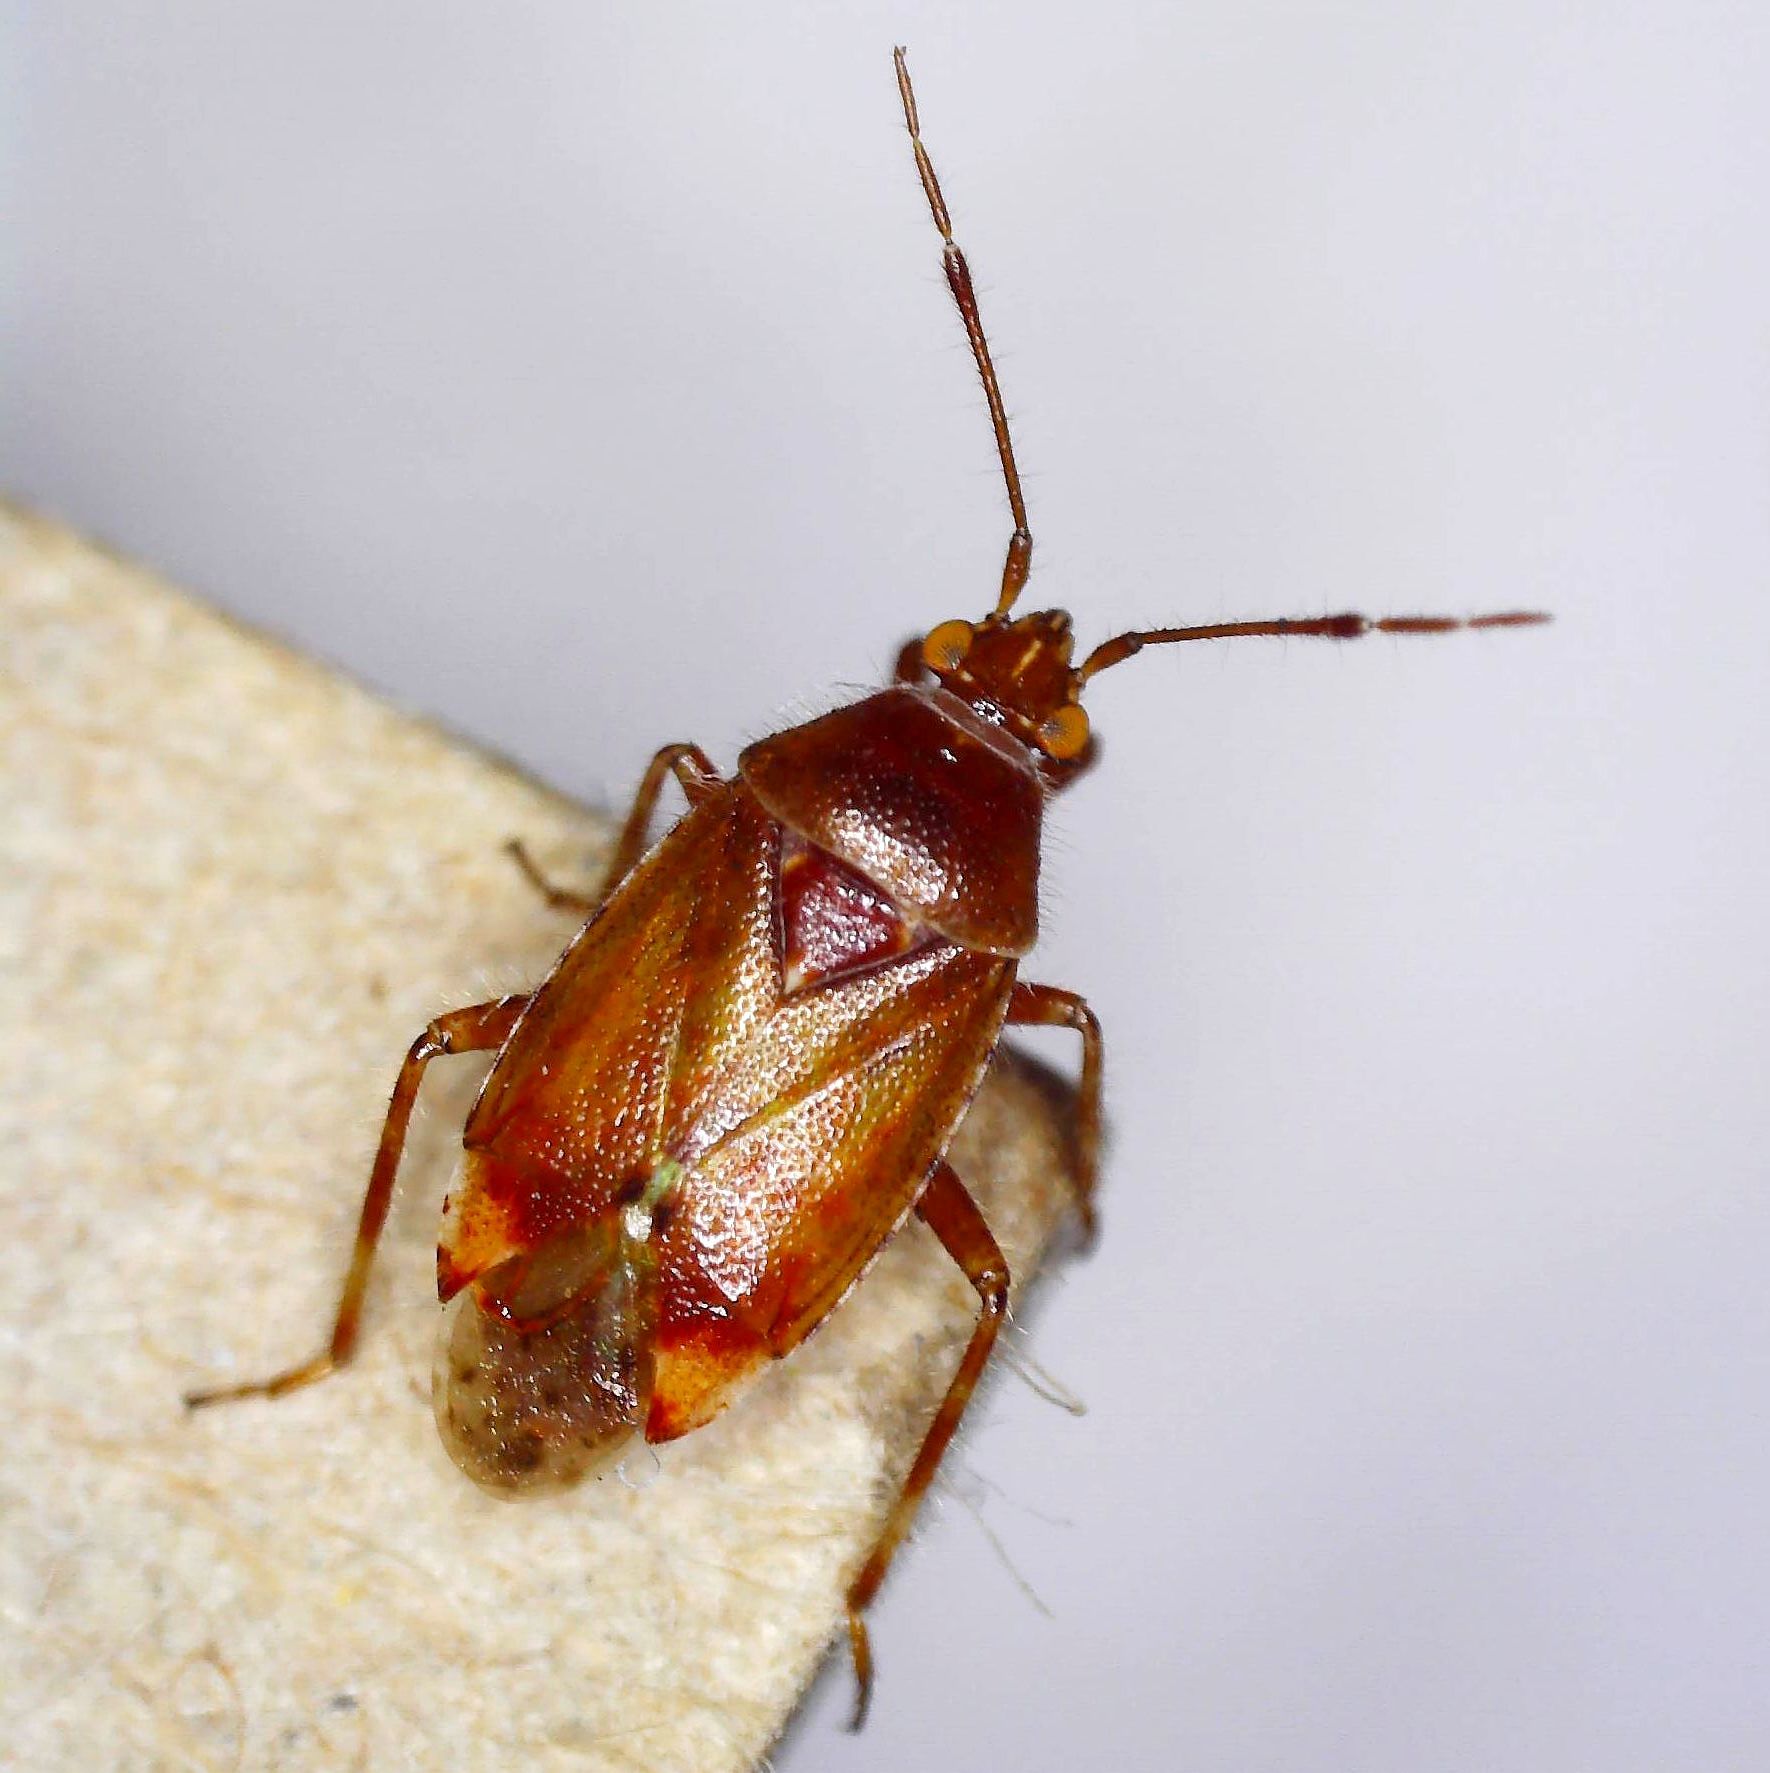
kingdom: Animalia
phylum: Arthropoda
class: Insecta
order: Hemiptera
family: Miridae
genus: Alloeotomus
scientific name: Alloeotomus gothicus
